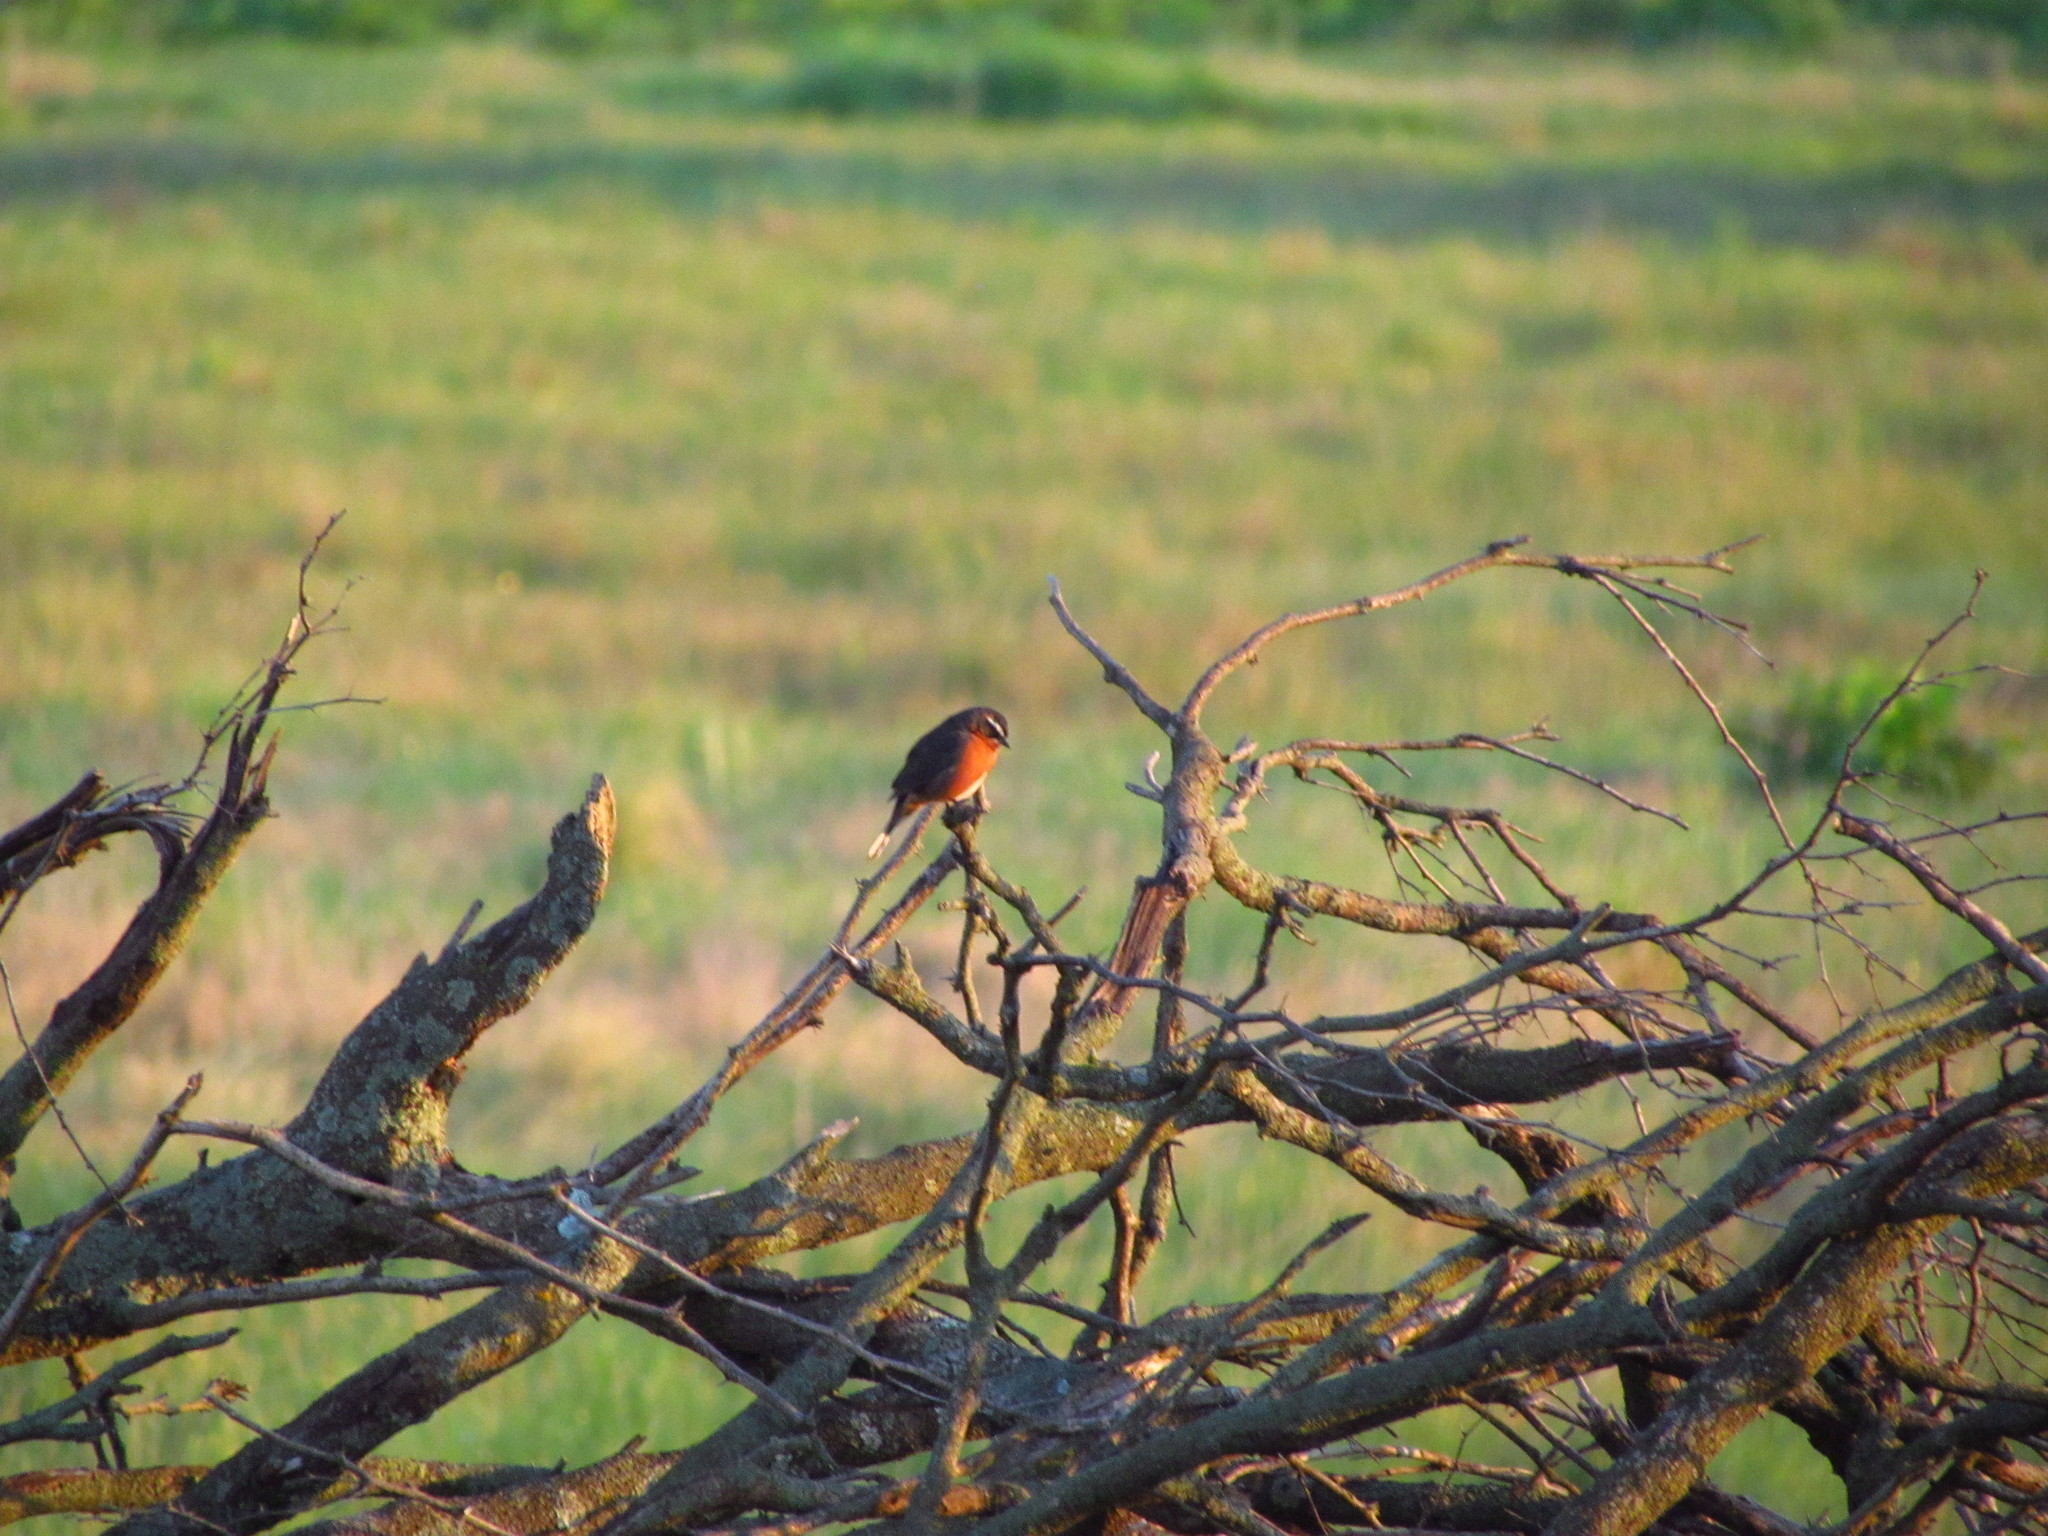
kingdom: Animalia
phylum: Chordata
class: Aves
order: Passeriformes
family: Thraupidae
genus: Poospiza
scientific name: Poospiza nigrorufa
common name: Black-and-rufous warbling finch
